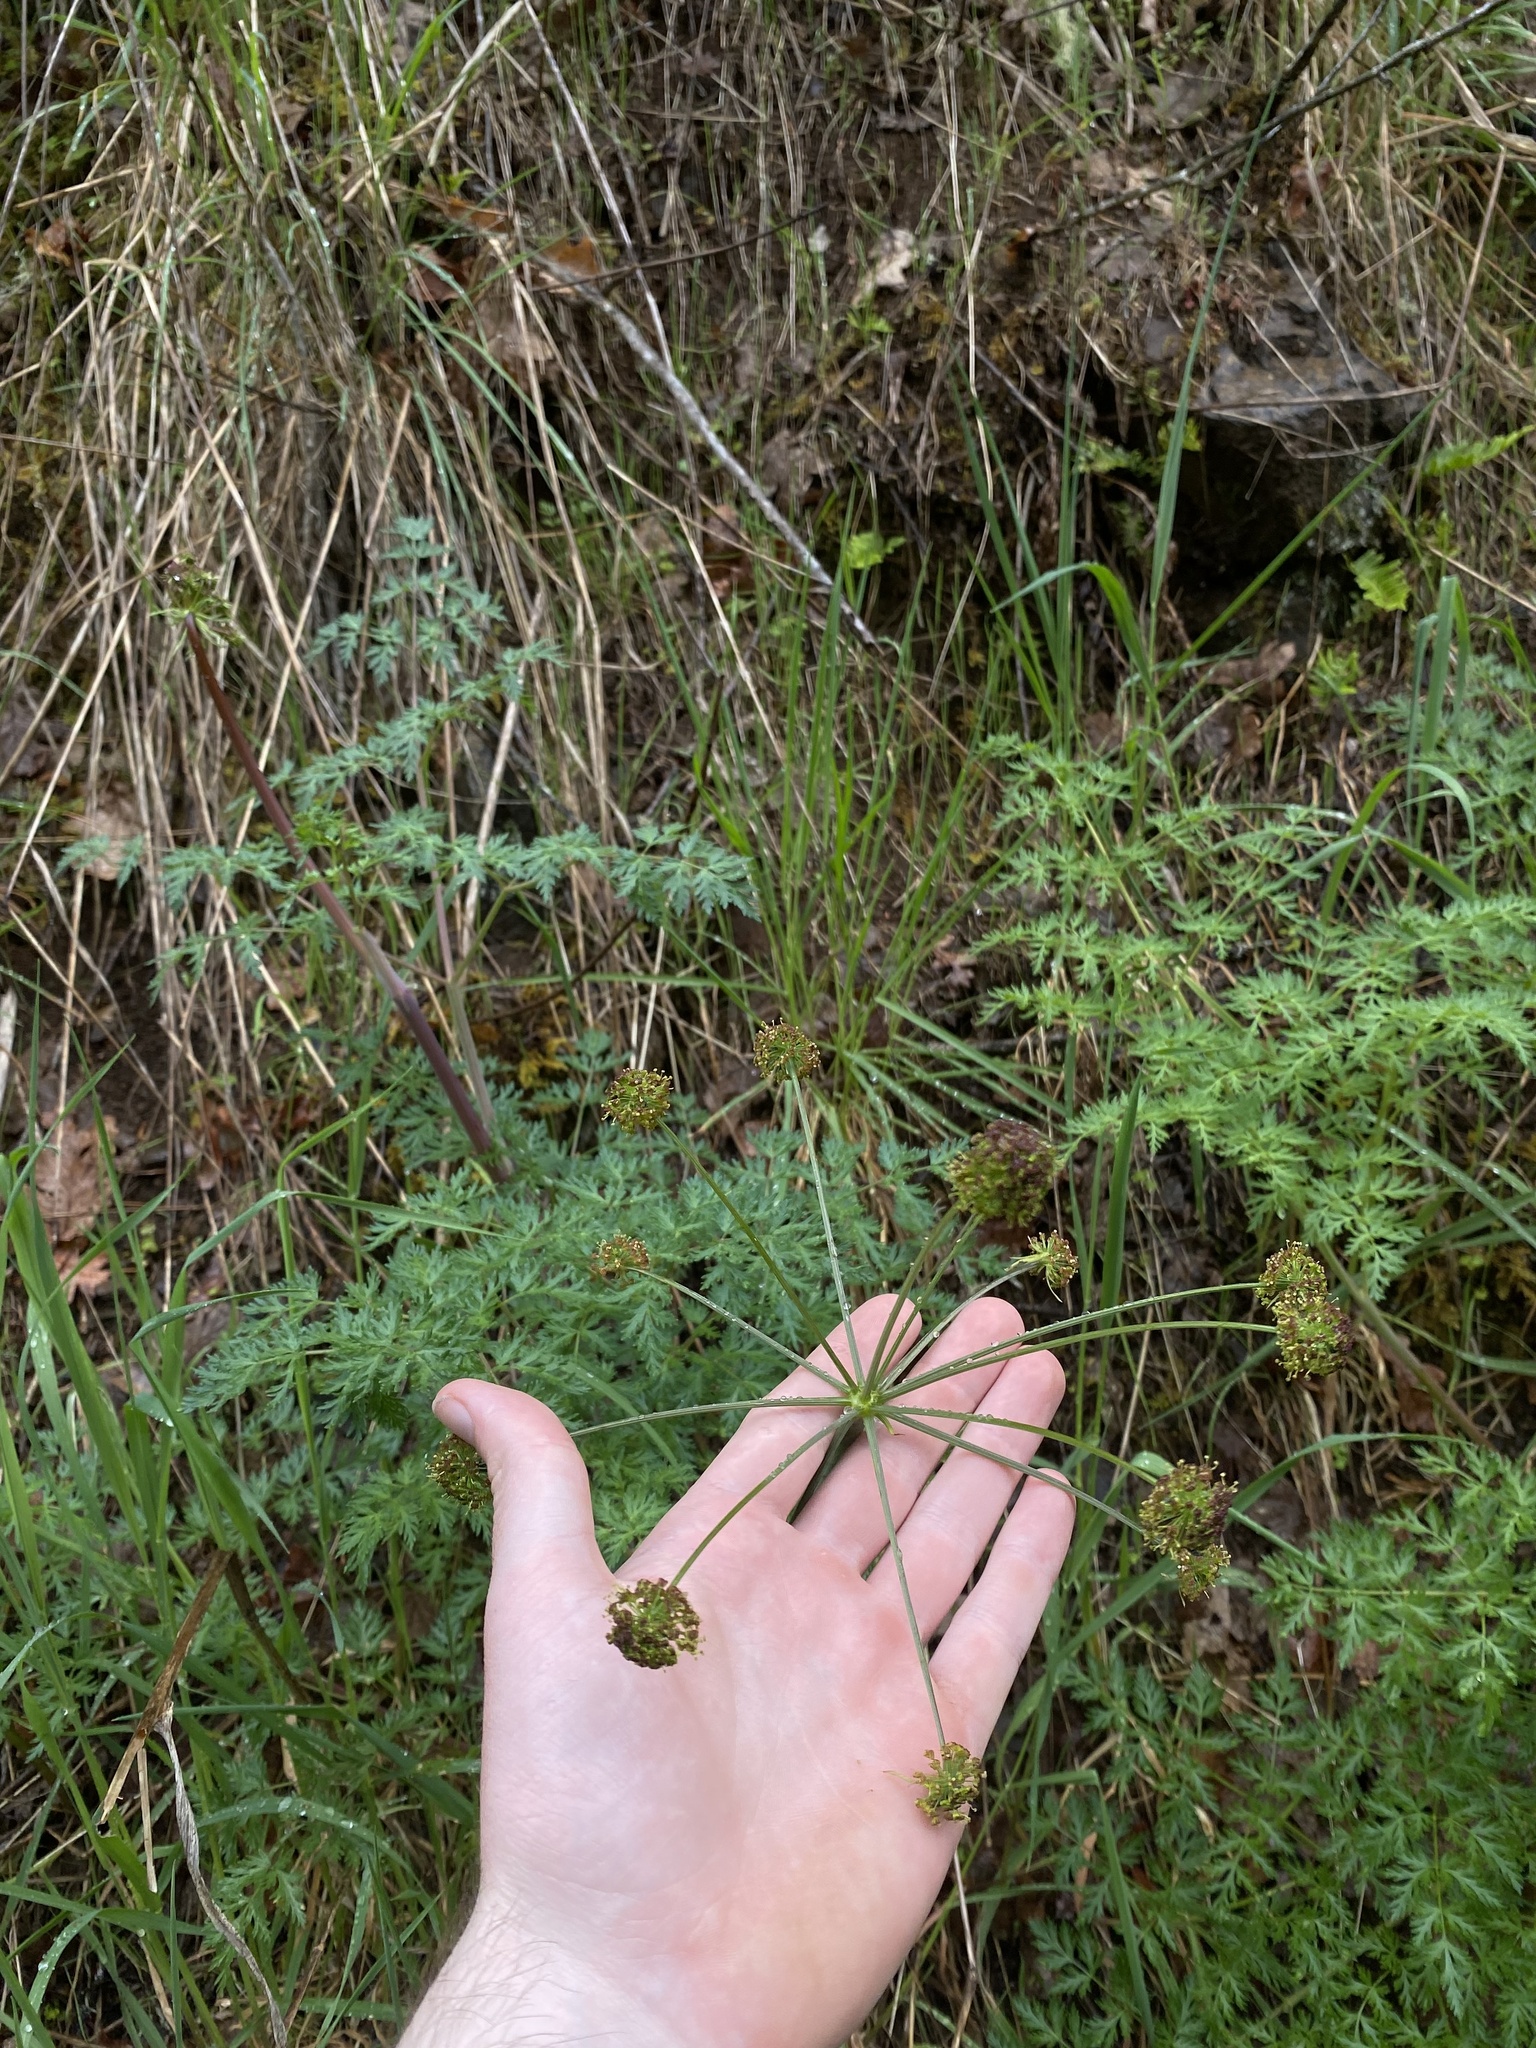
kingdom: Plantae
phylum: Tracheophyta
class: Magnoliopsida
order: Apiales
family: Apiaceae
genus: Lomatium
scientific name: Lomatium dissectum
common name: Lomatium
